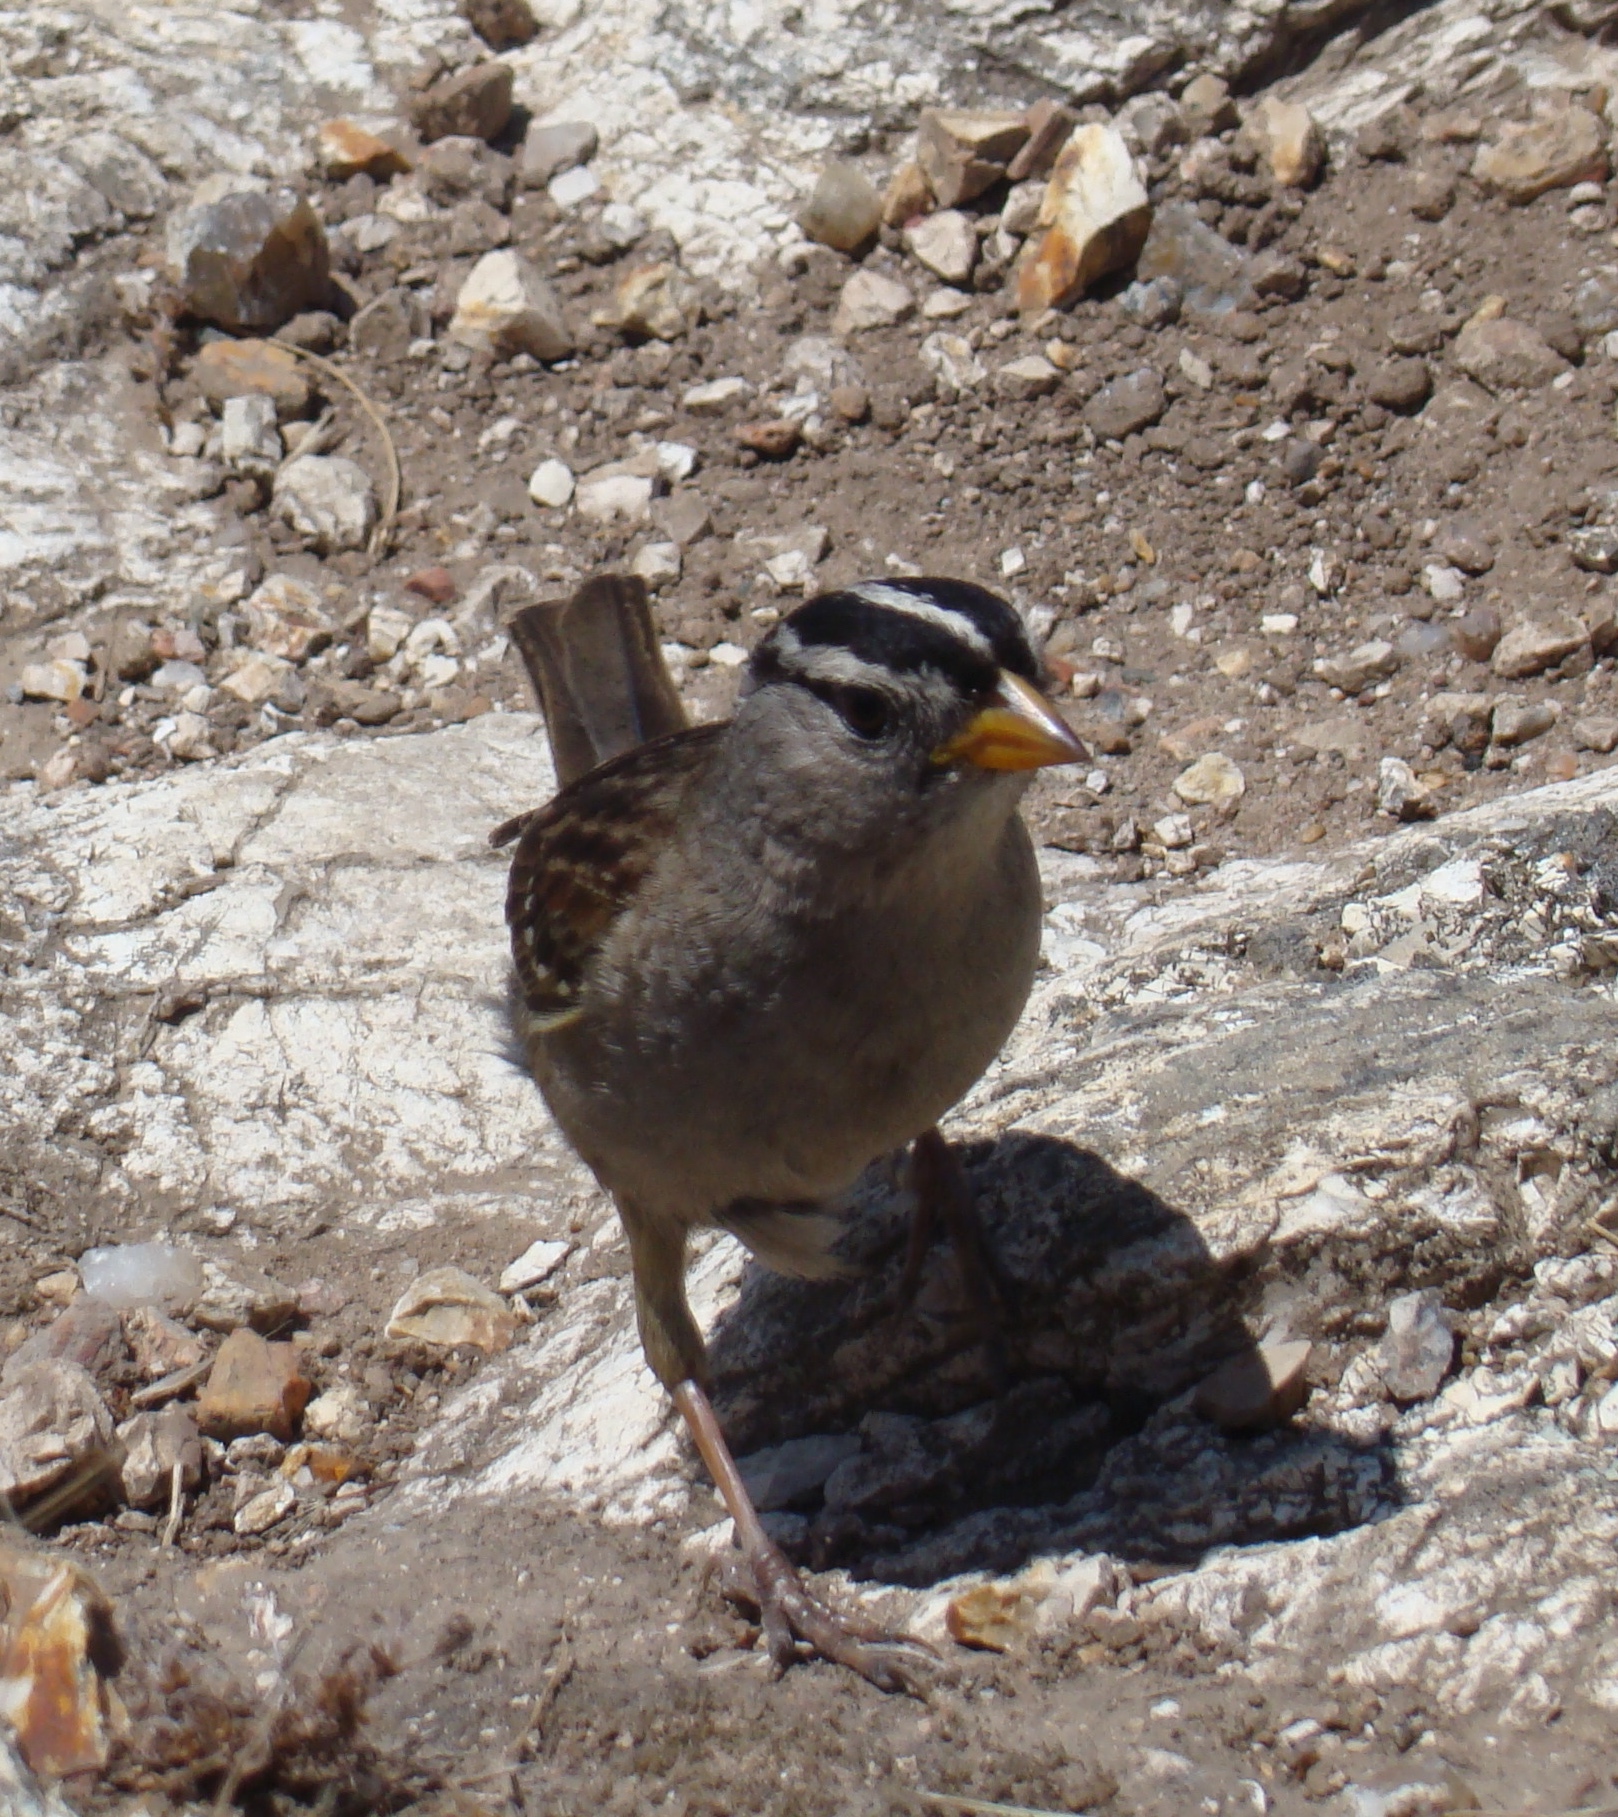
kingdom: Animalia
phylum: Chordata
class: Aves
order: Passeriformes
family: Passerellidae
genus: Zonotrichia
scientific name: Zonotrichia leucophrys
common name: White-crowned sparrow
